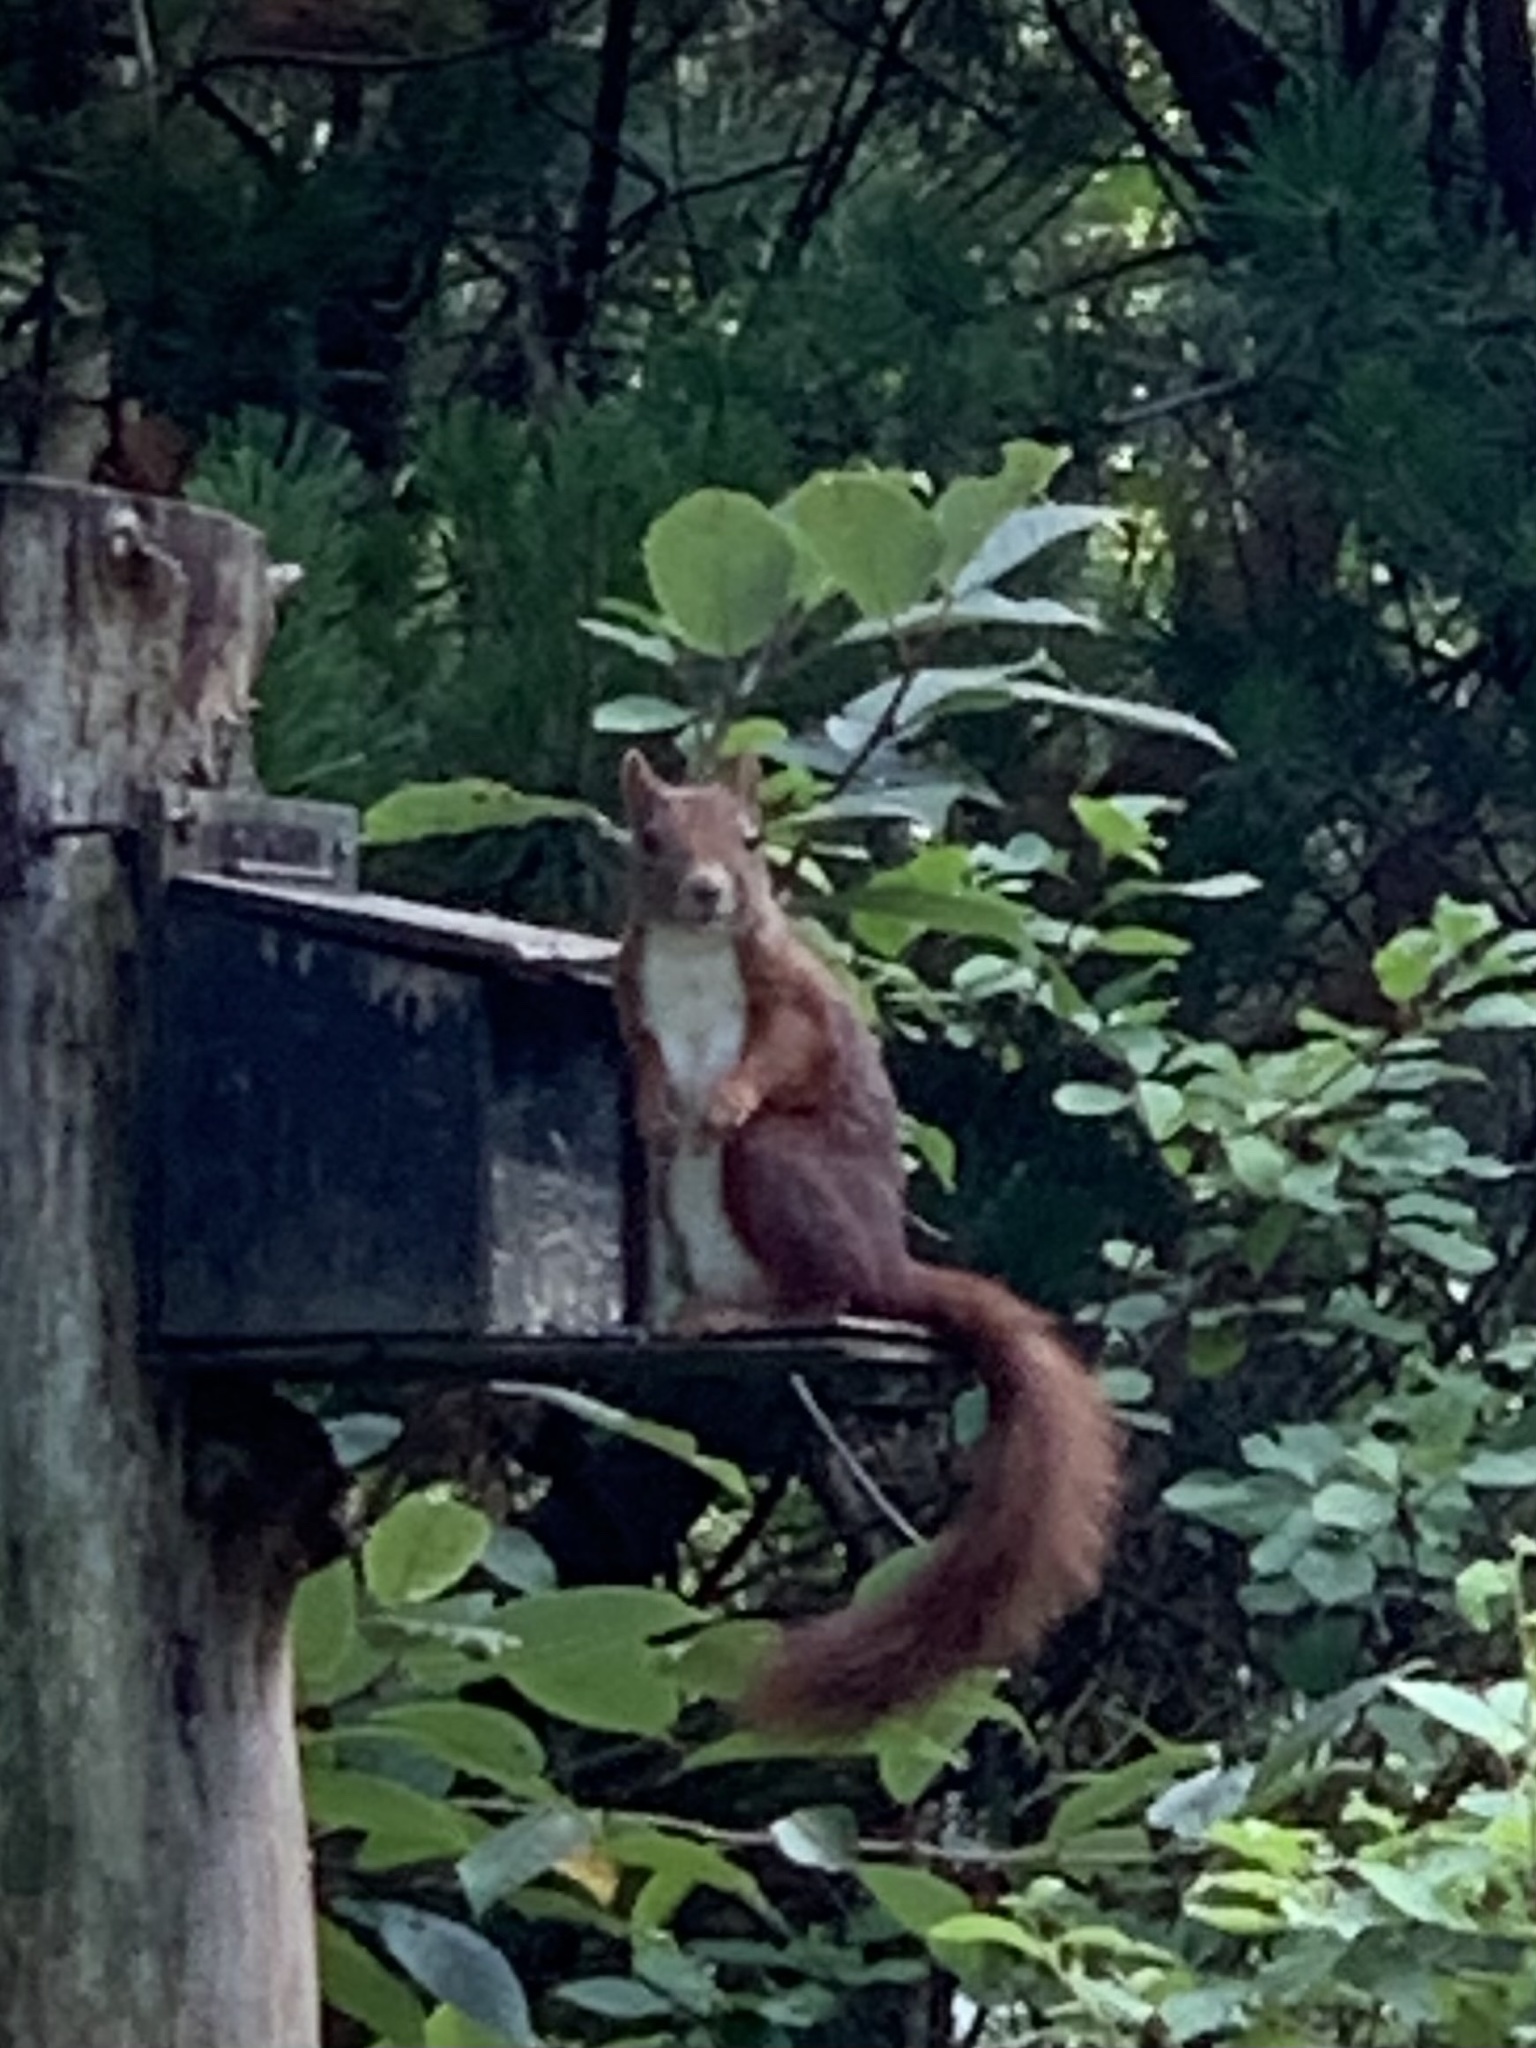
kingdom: Animalia
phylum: Chordata
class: Mammalia
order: Rodentia
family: Sciuridae
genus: Sciurus
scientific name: Sciurus vulgaris
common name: Eurasian red squirrel
